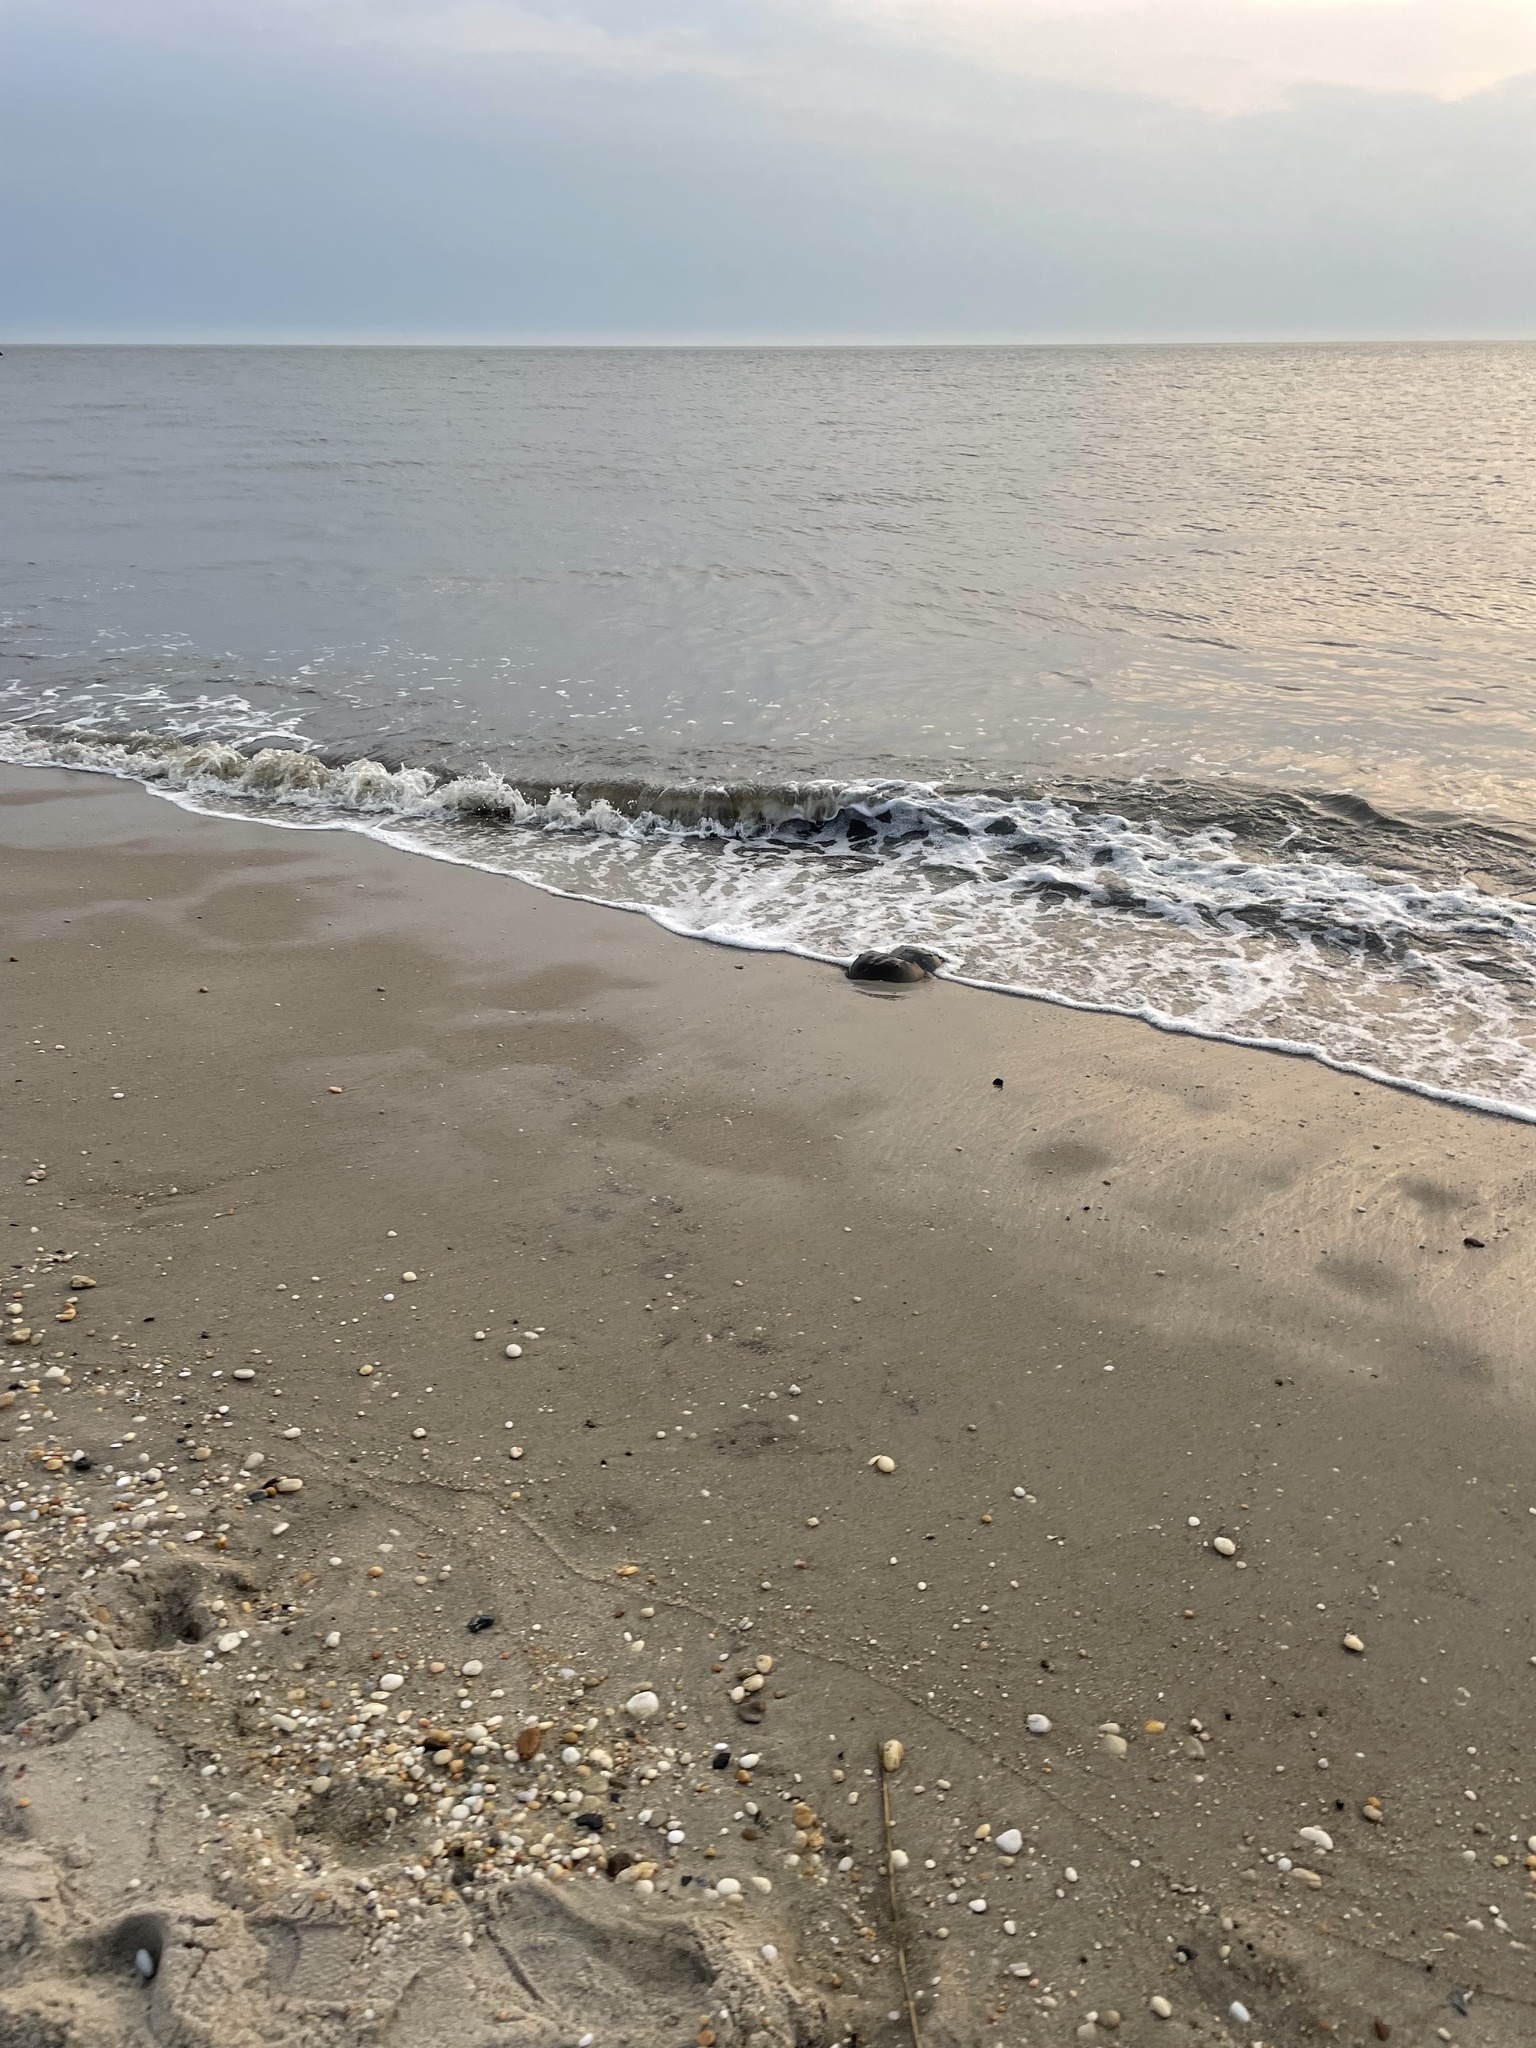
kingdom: Animalia
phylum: Arthropoda
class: Merostomata
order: Xiphosurida
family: Limulidae
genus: Limulus
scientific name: Limulus polyphemus
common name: Horseshoe crab
